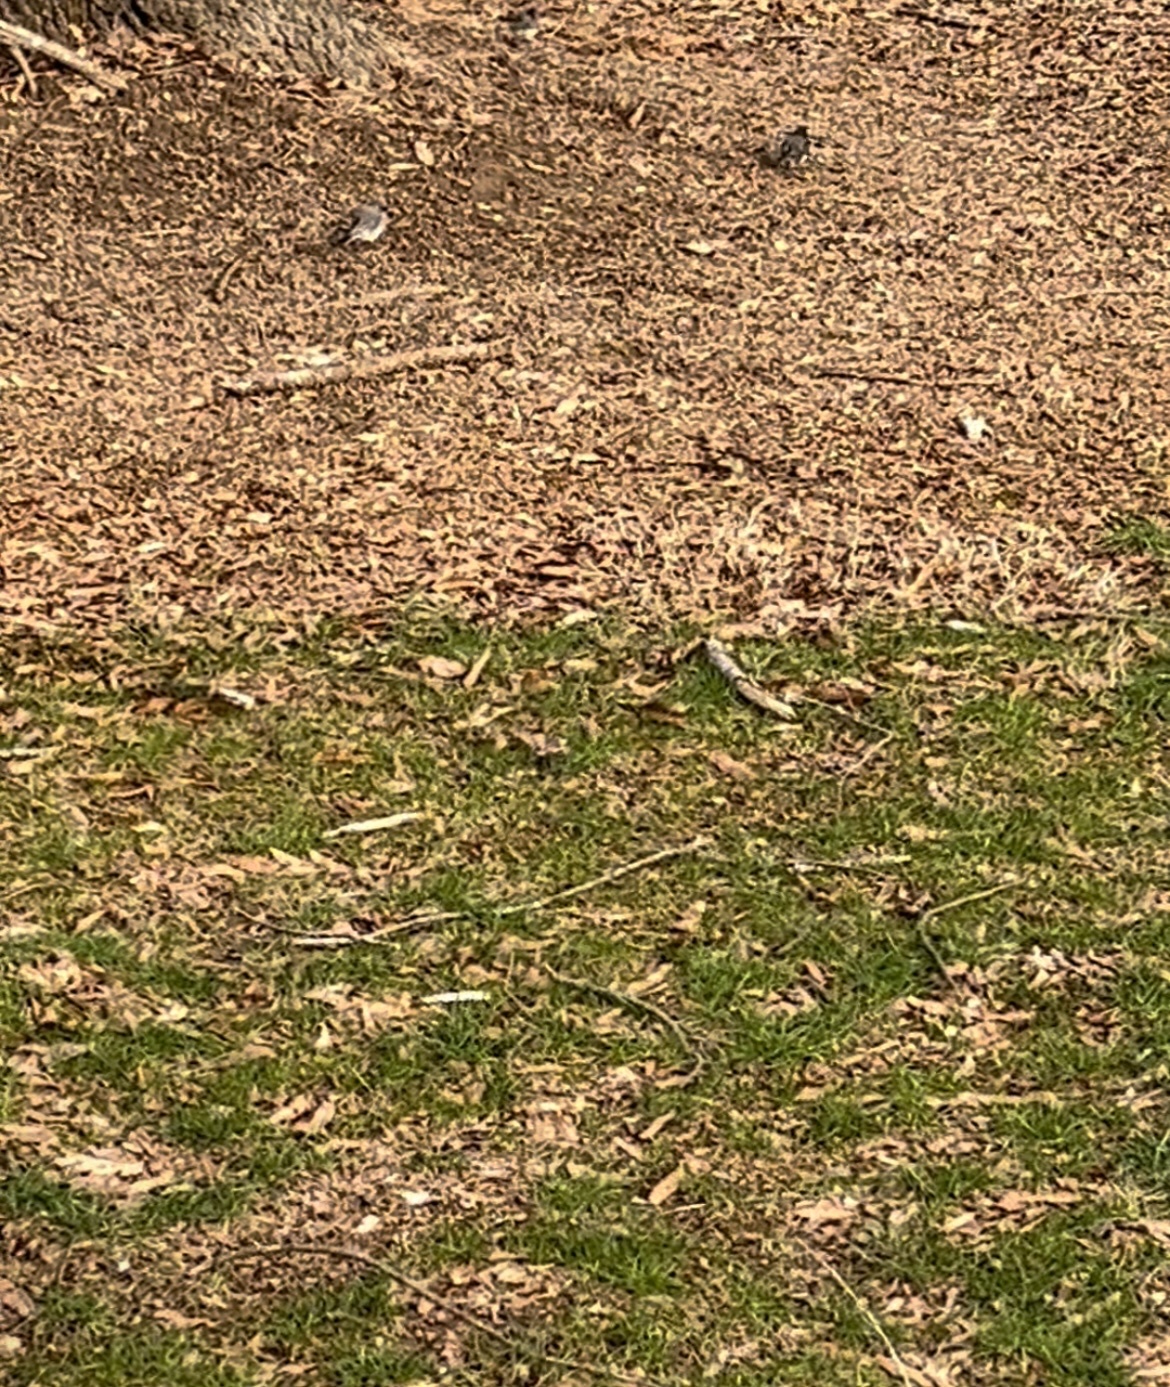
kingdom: Animalia
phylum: Chordata
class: Aves
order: Passeriformes
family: Passerellidae
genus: Junco
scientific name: Junco hyemalis
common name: Dark-eyed junco
